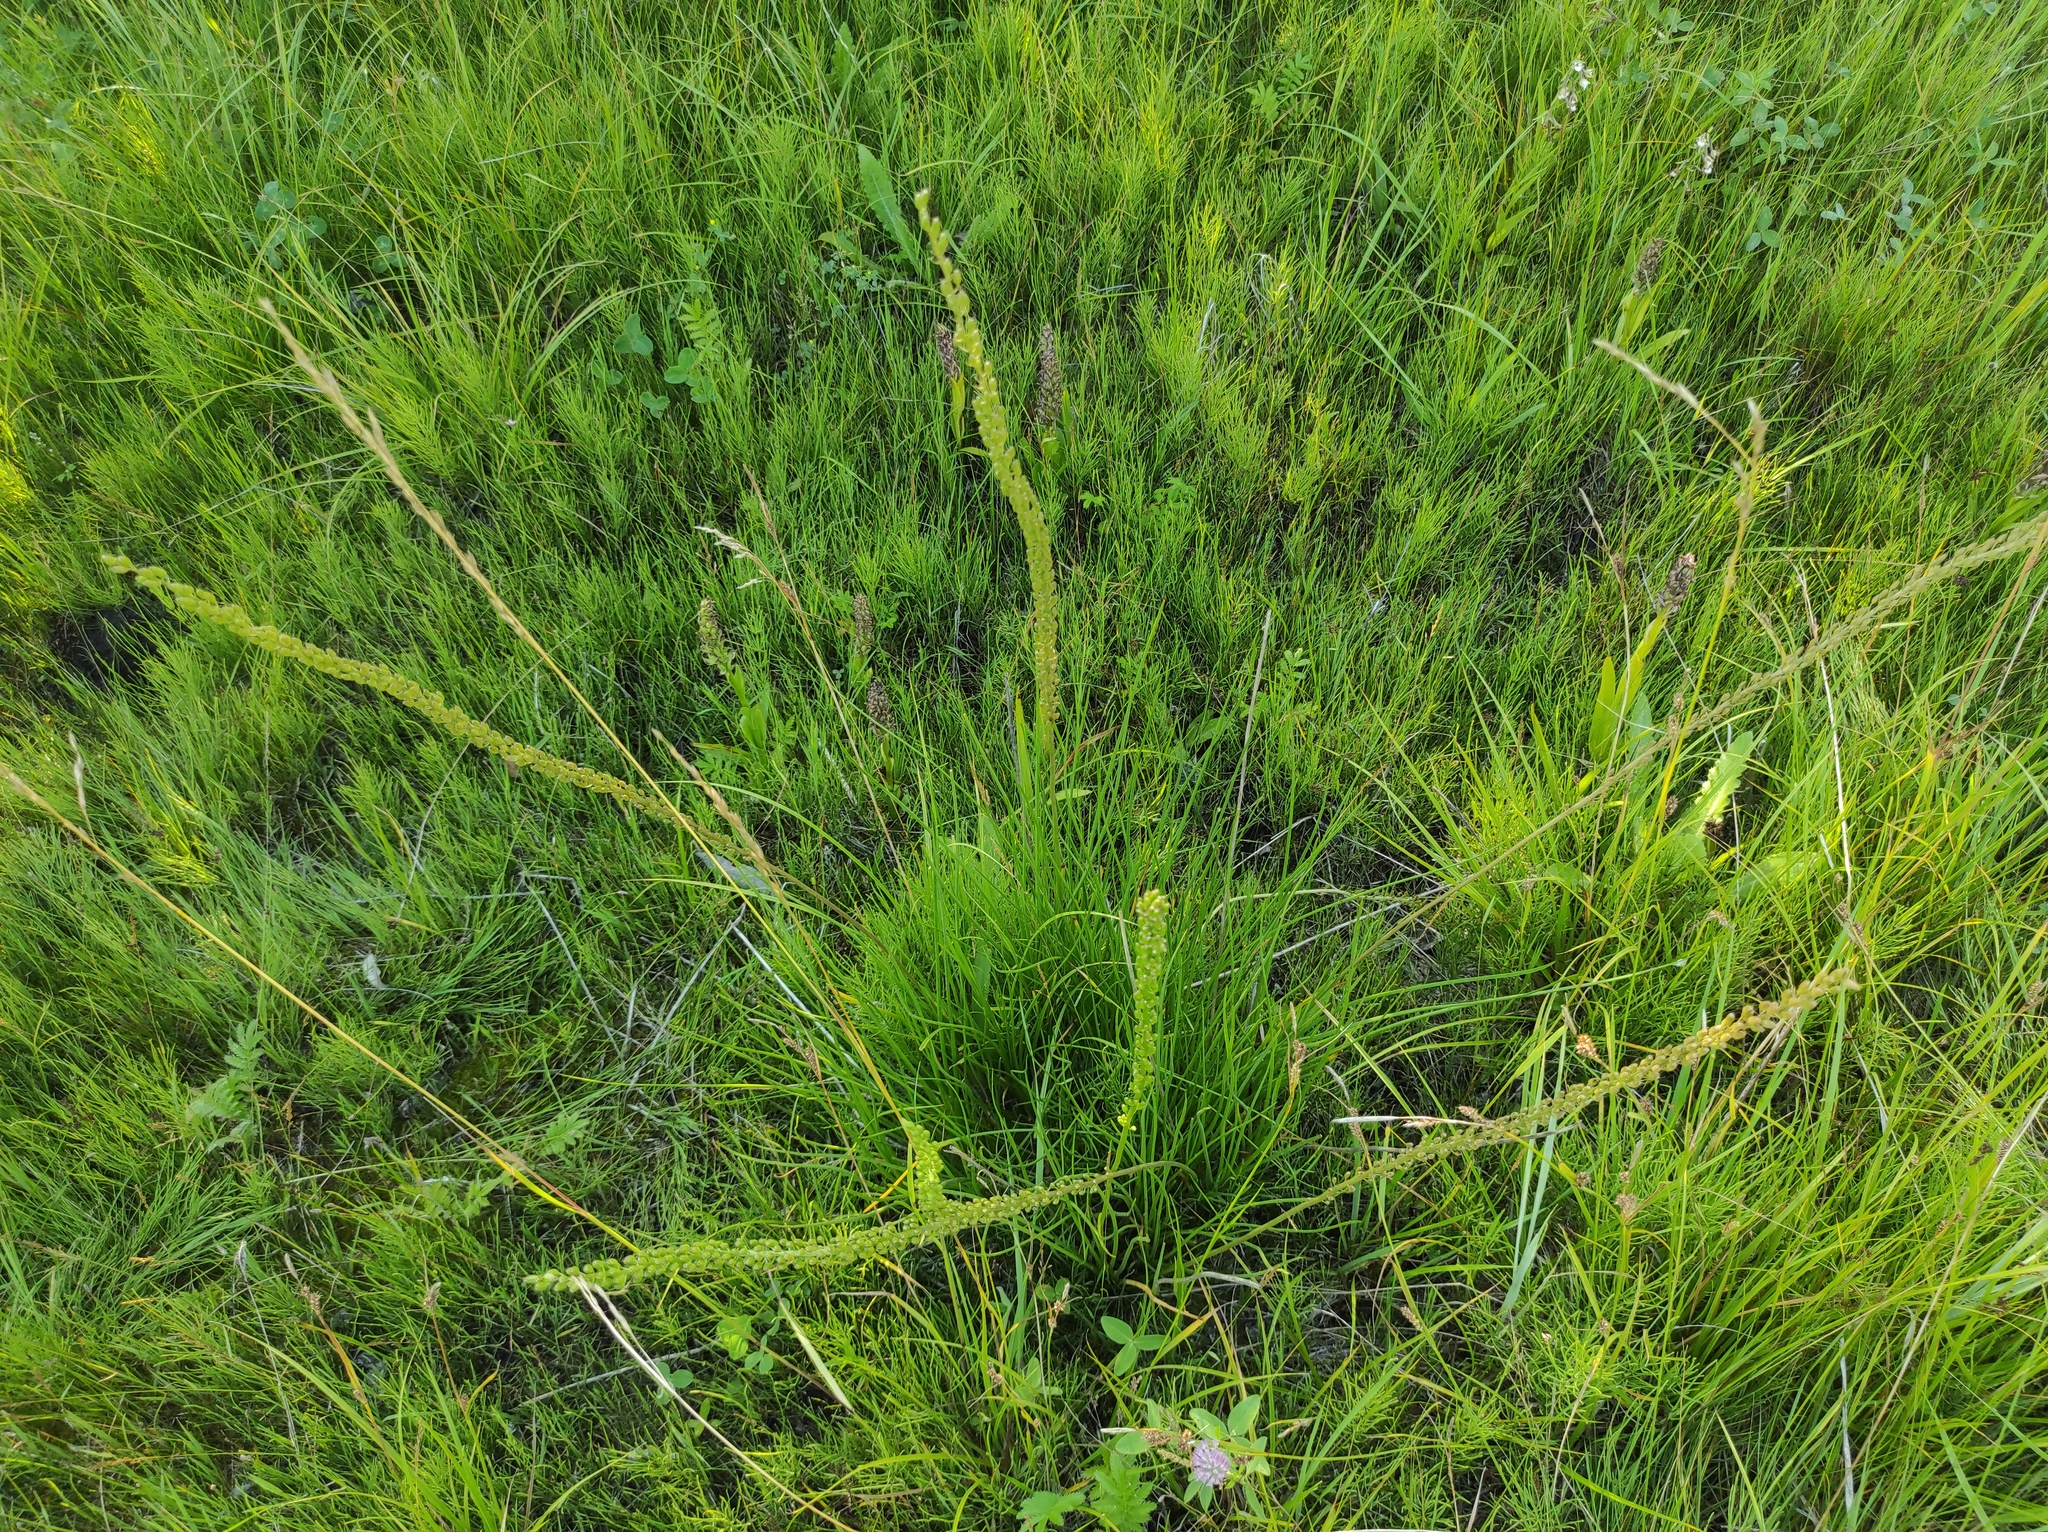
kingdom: Plantae
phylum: Tracheophyta
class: Liliopsida
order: Alismatales
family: Juncaginaceae
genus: Triglochin
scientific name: Triglochin maritima
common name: Sea arrowgrass
